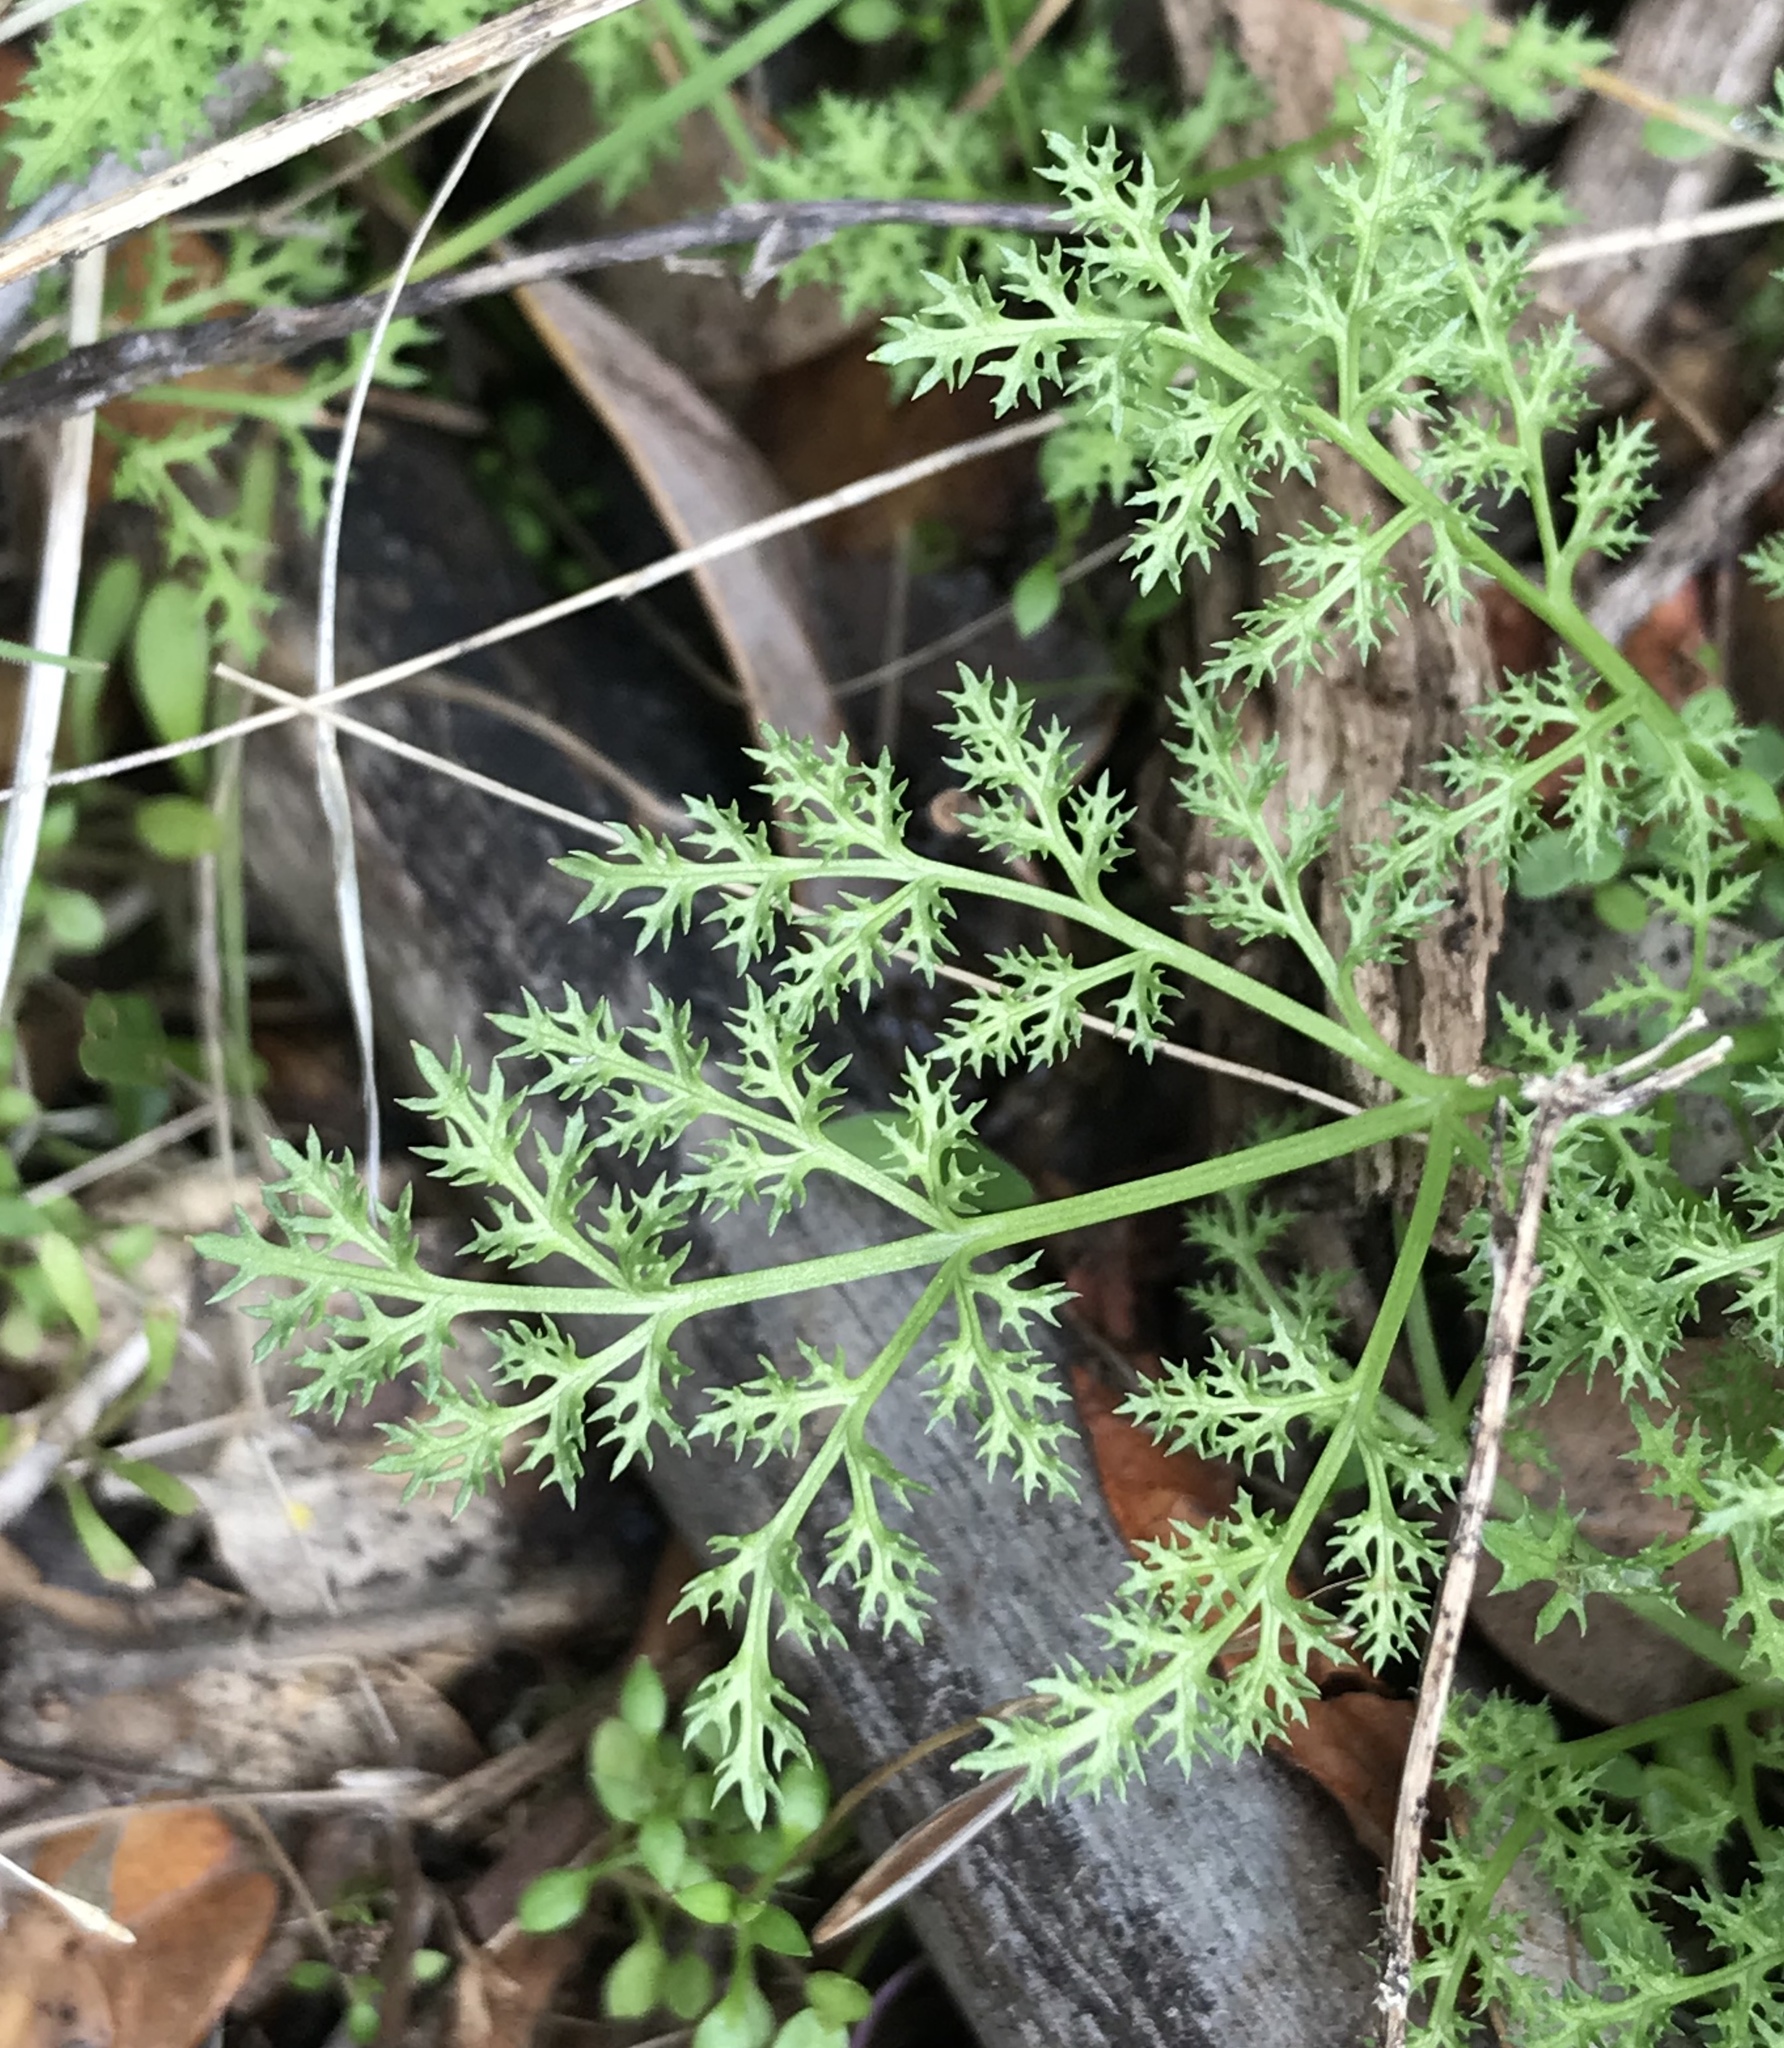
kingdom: Plantae
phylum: Tracheophyta
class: Magnoliopsida
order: Apiales
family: Apiaceae
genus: Sanicula
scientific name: Sanicula tuberosa
